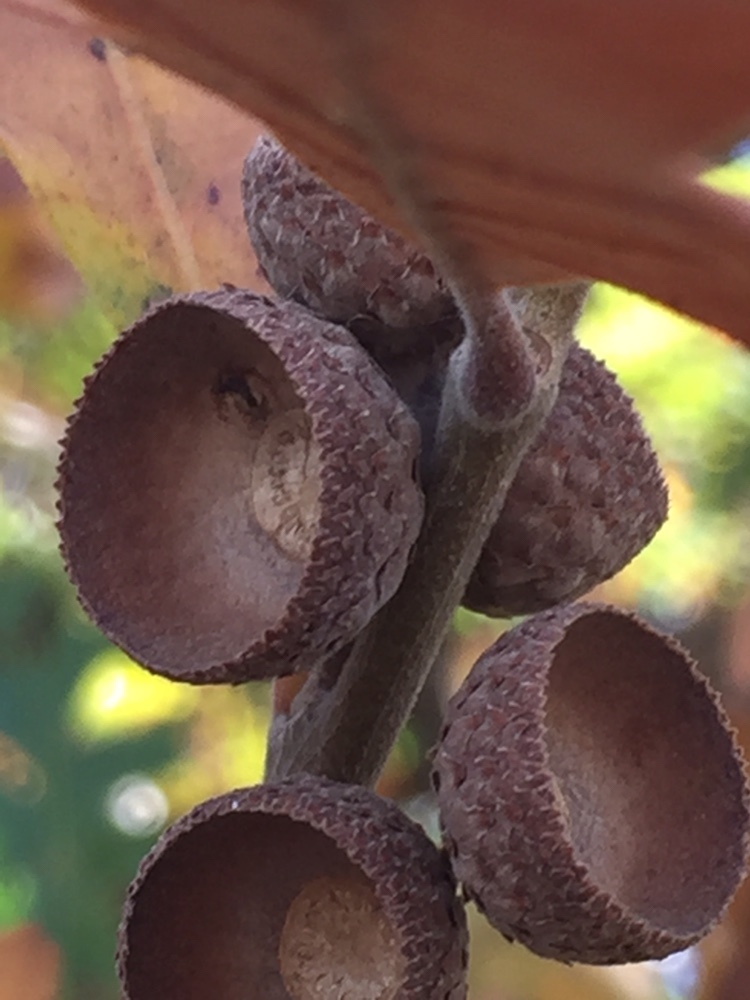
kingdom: Plantae
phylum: Tracheophyta
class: Magnoliopsida
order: Fagales
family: Fagaceae
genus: Quercus
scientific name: Quercus gambelii
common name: Gambel oak
